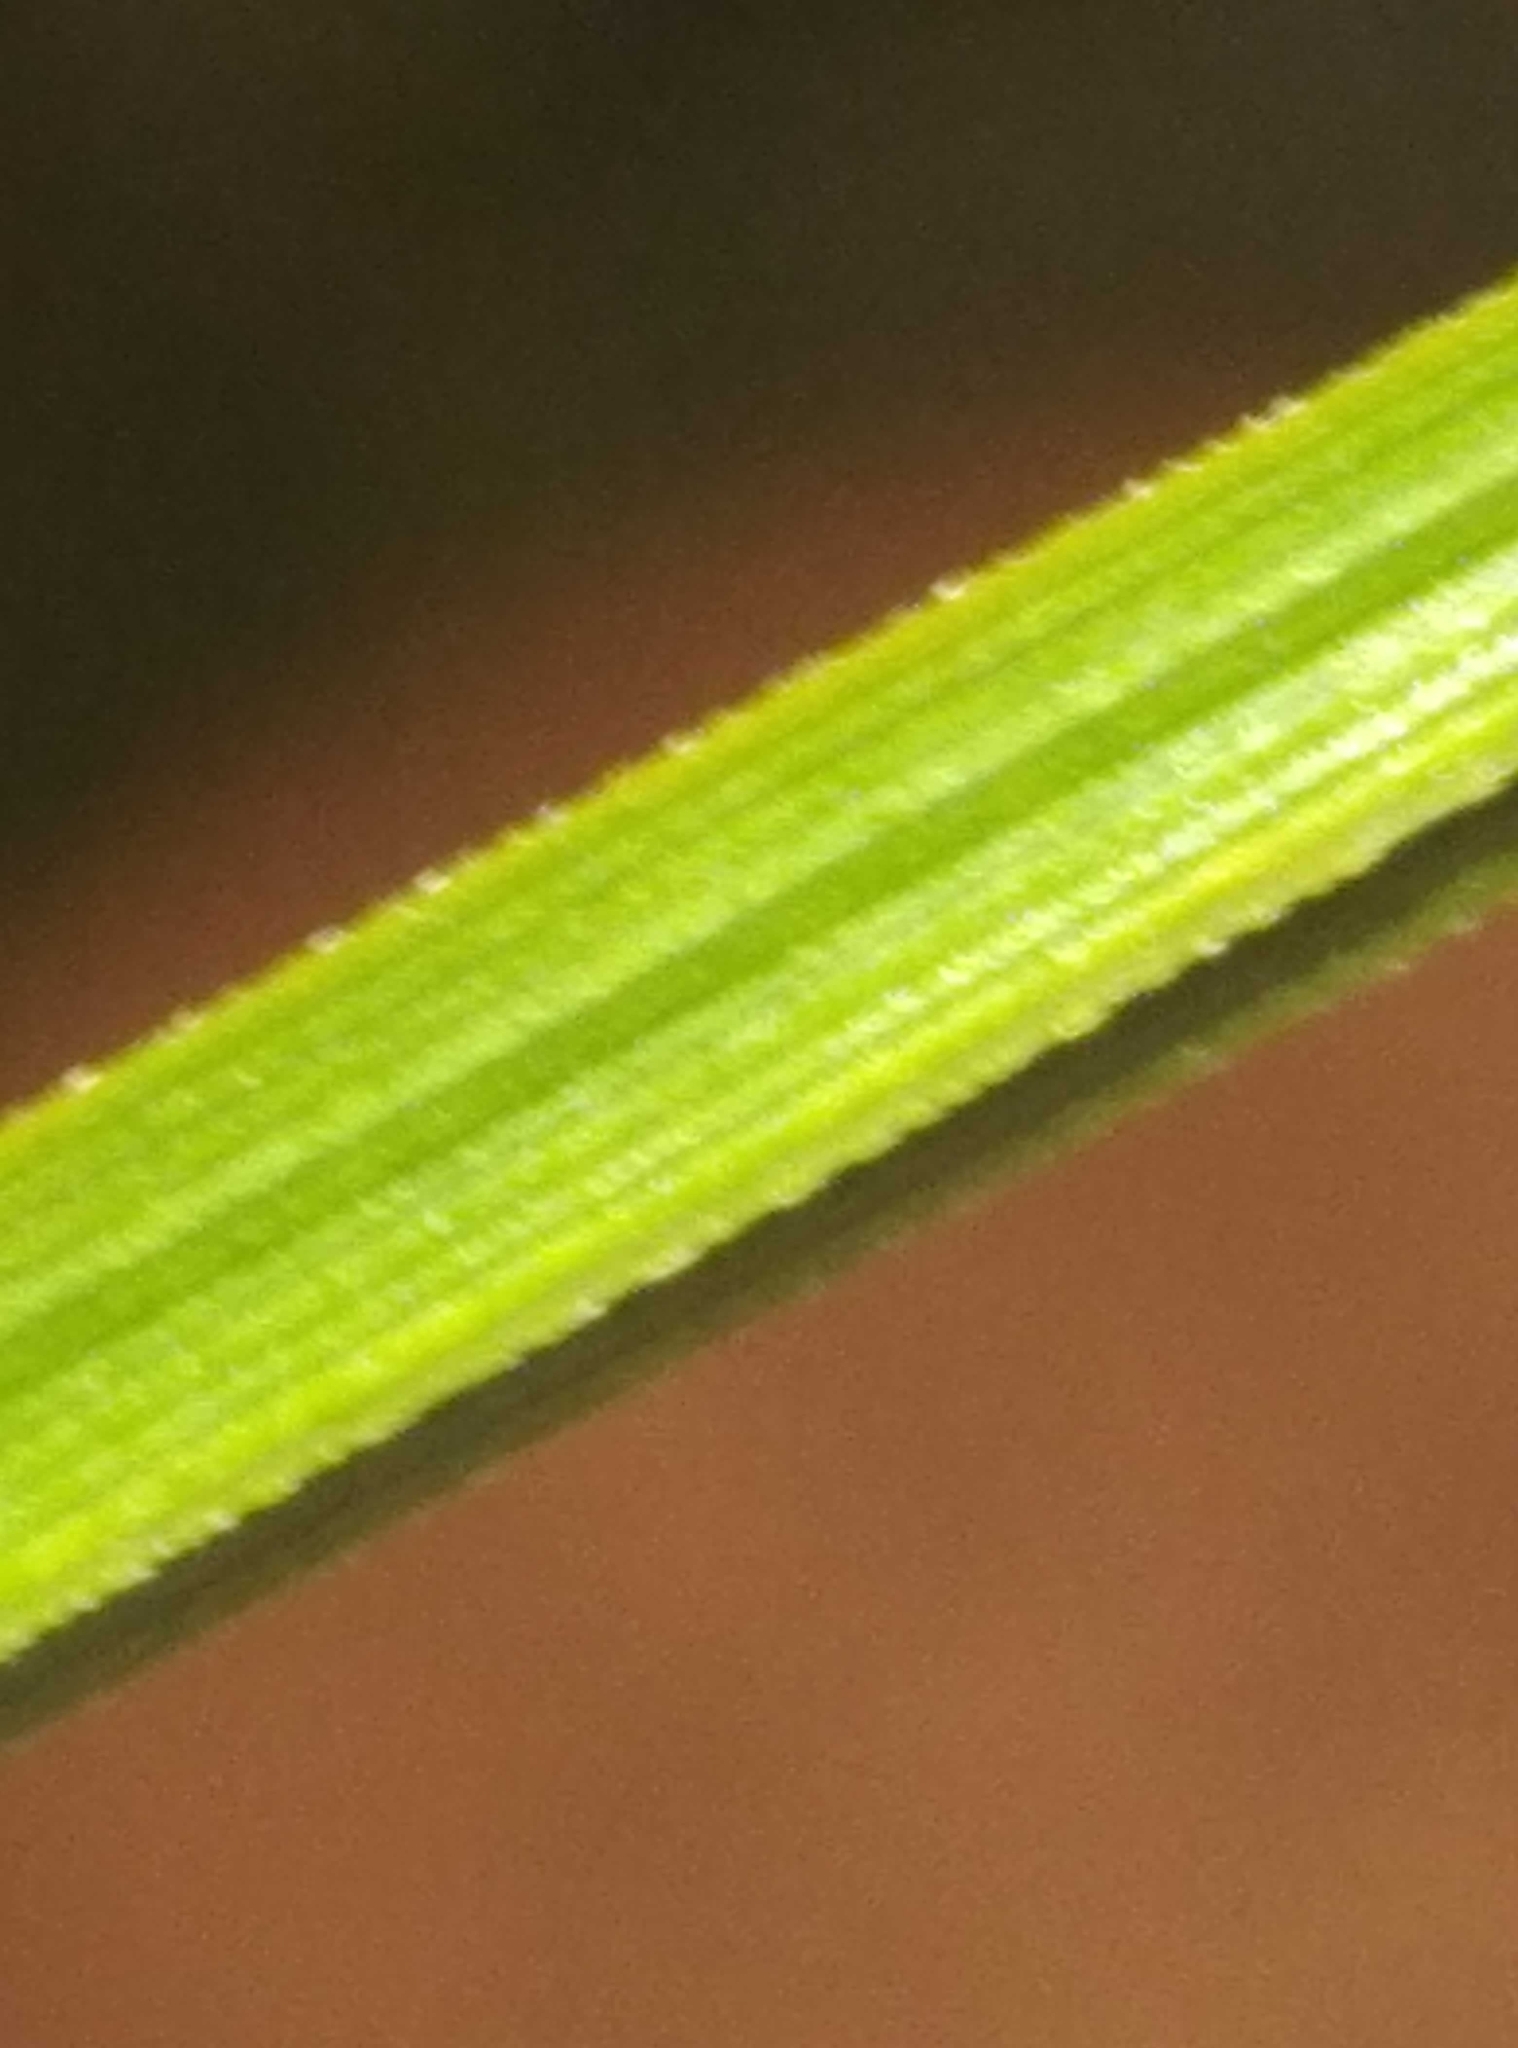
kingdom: Plantae
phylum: Tracheophyta
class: Liliopsida
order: Poales
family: Cyperaceae
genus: Carex
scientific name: Carex goyenii
